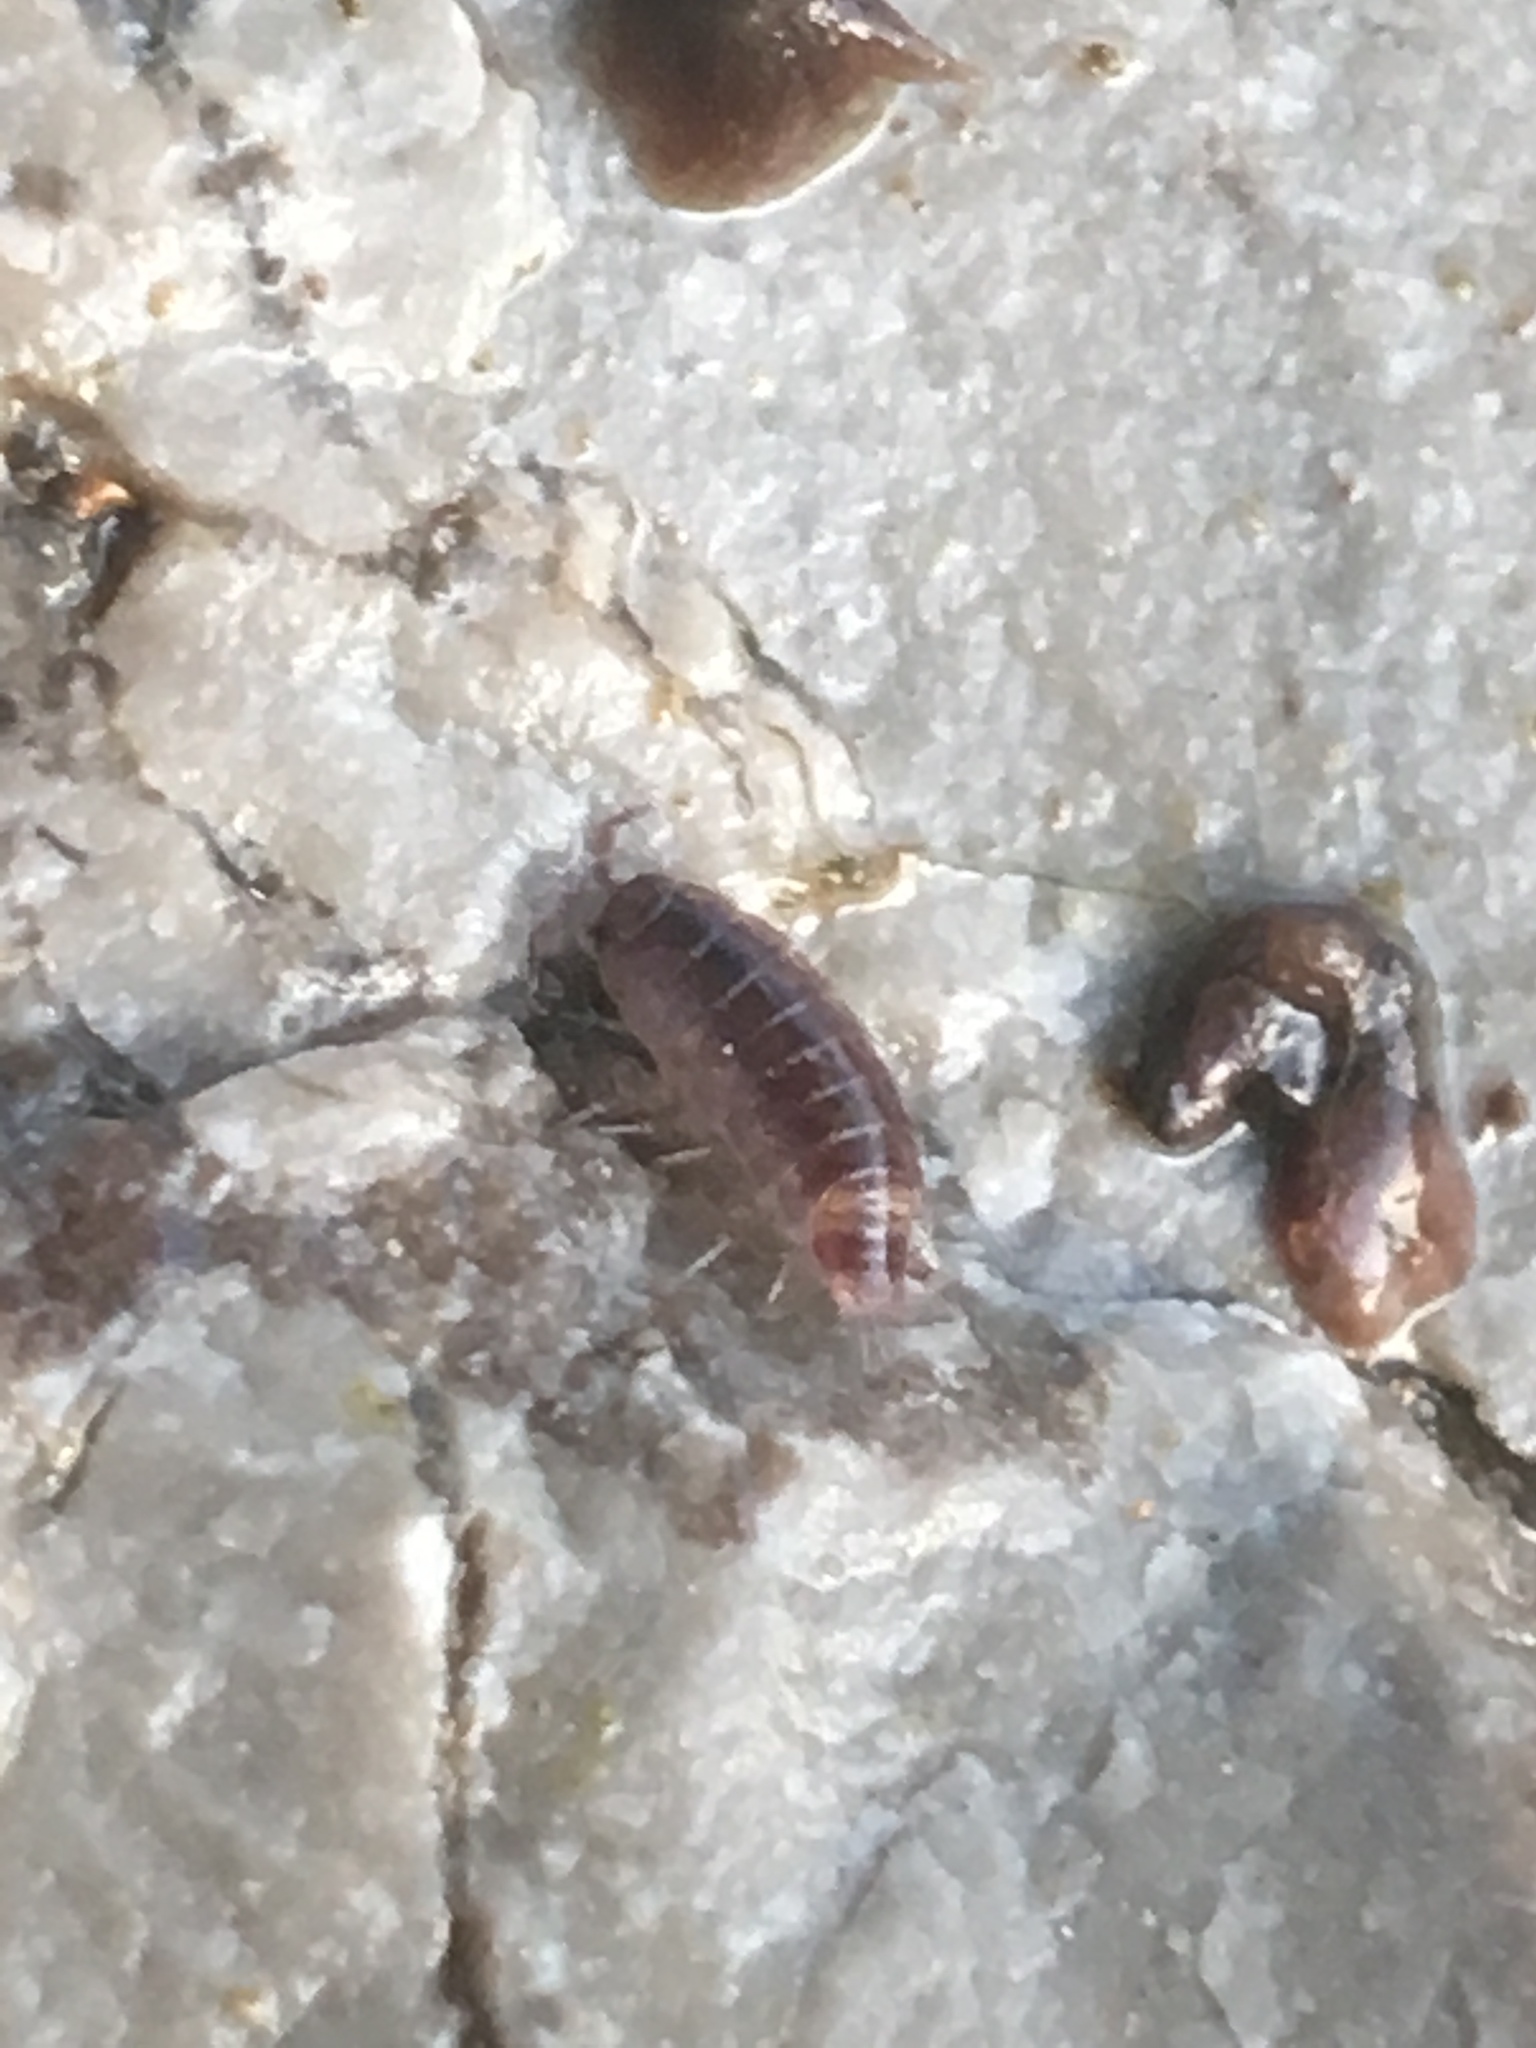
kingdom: Animalia
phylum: Arthropoda
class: Malacostraca
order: Isopoda
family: Trichoniscidae
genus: Hyloniscus
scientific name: Hyloniscus riparius
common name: Isopod
